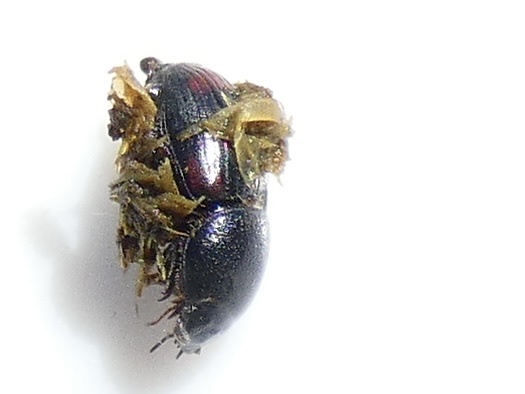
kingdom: Animalia
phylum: Arthropoda
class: Insecta
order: Coleoptera
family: Scarabaeidae
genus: Otophorus
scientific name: Otophorus haemorrhoidalis
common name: Bloody small dung beetle
